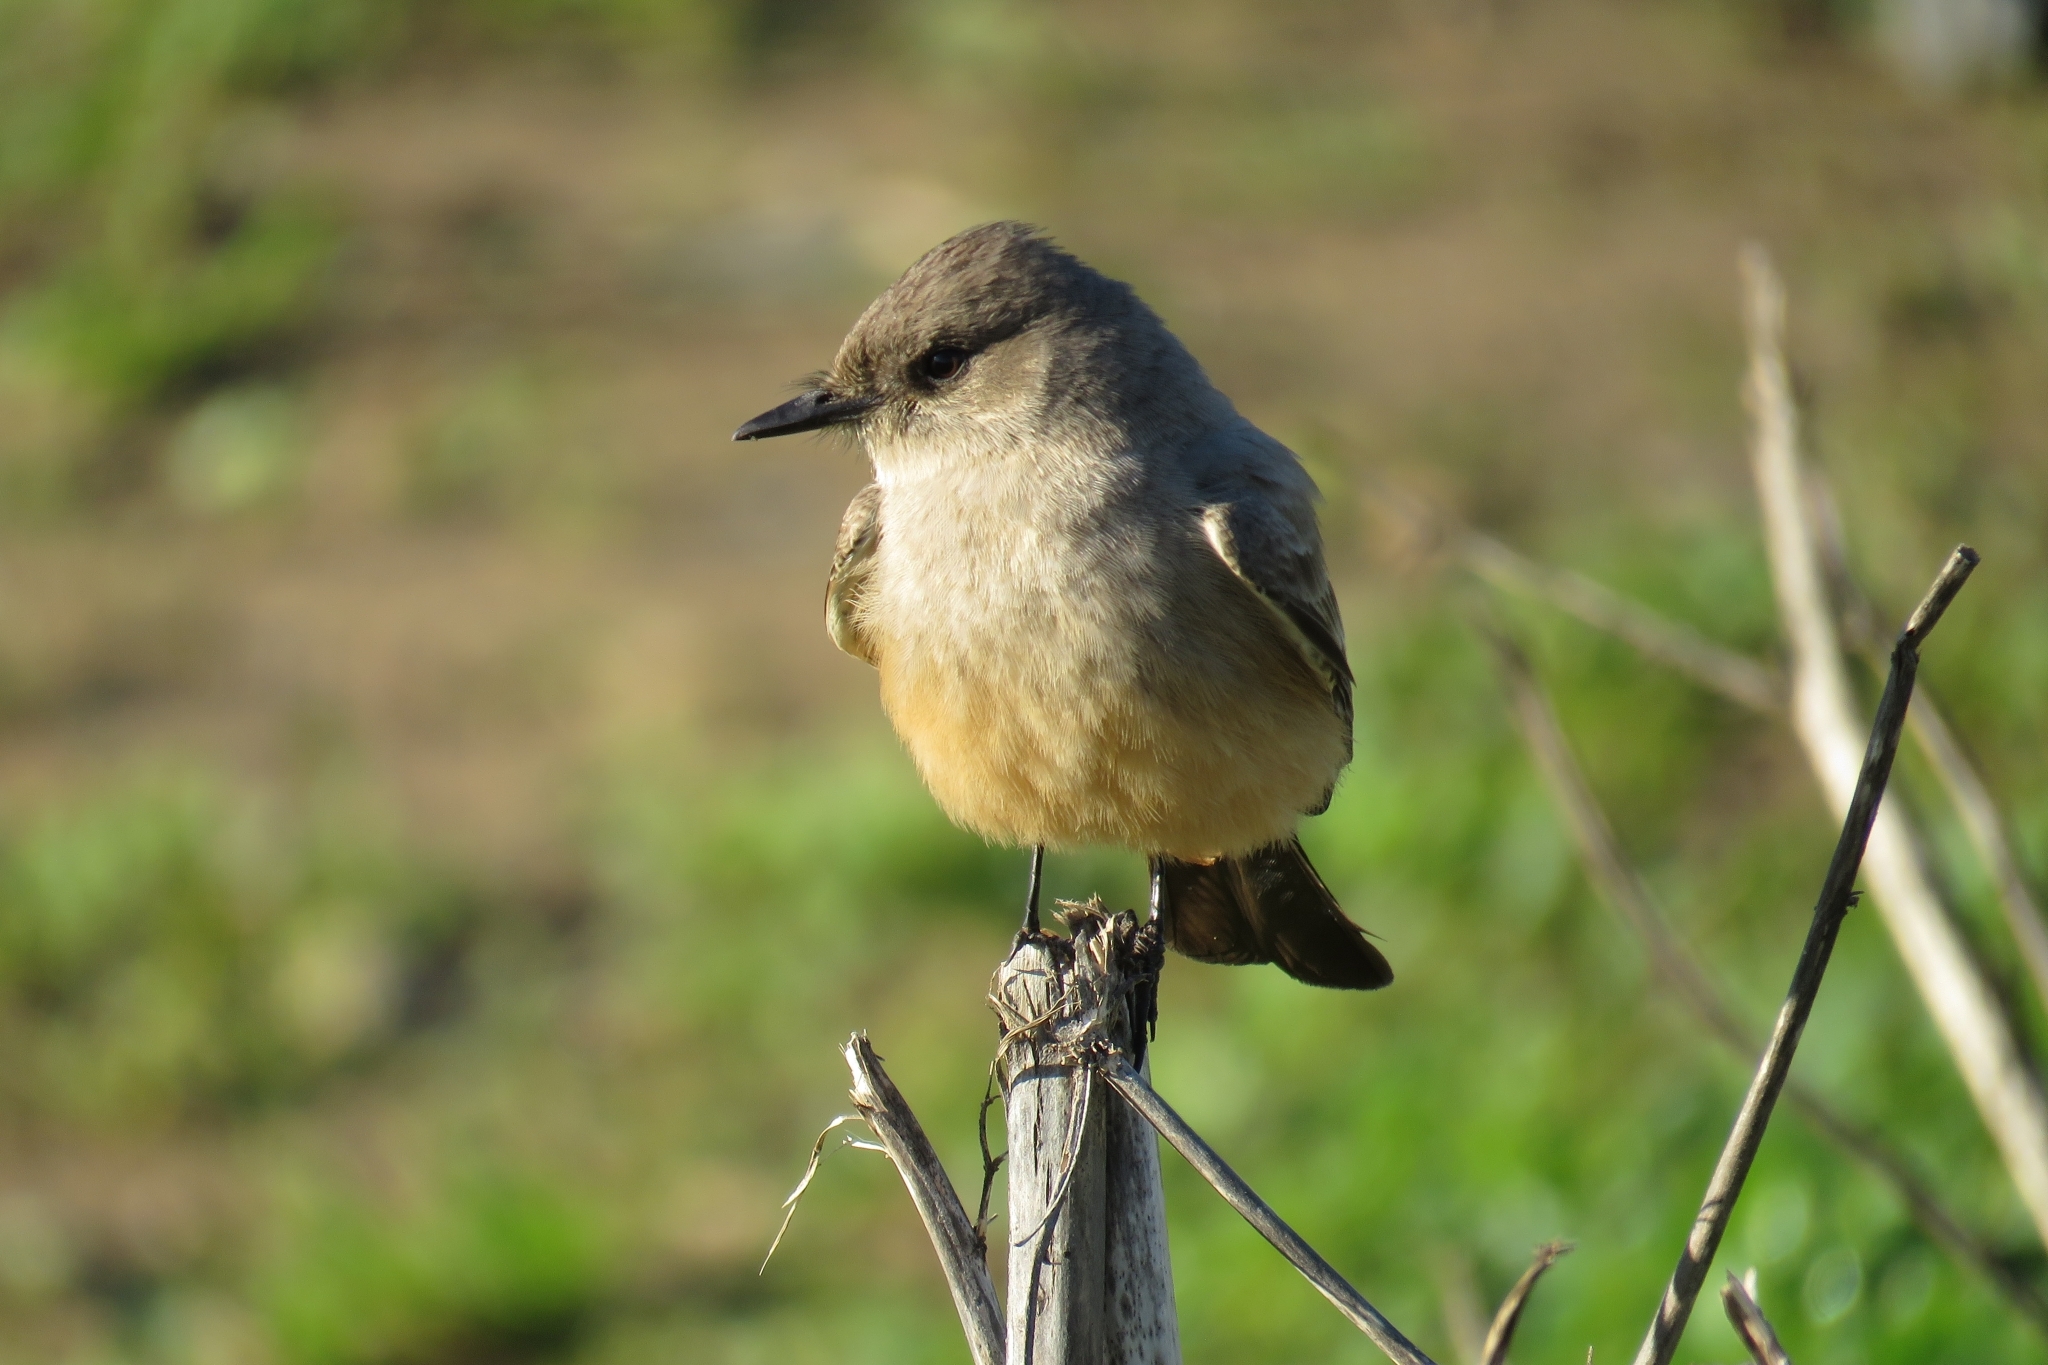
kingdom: Animalia
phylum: Chordata
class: Aves
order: Passeriformes
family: Tyrannidae
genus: Sayornis
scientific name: Sayornis saya
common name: Say's phoebe
